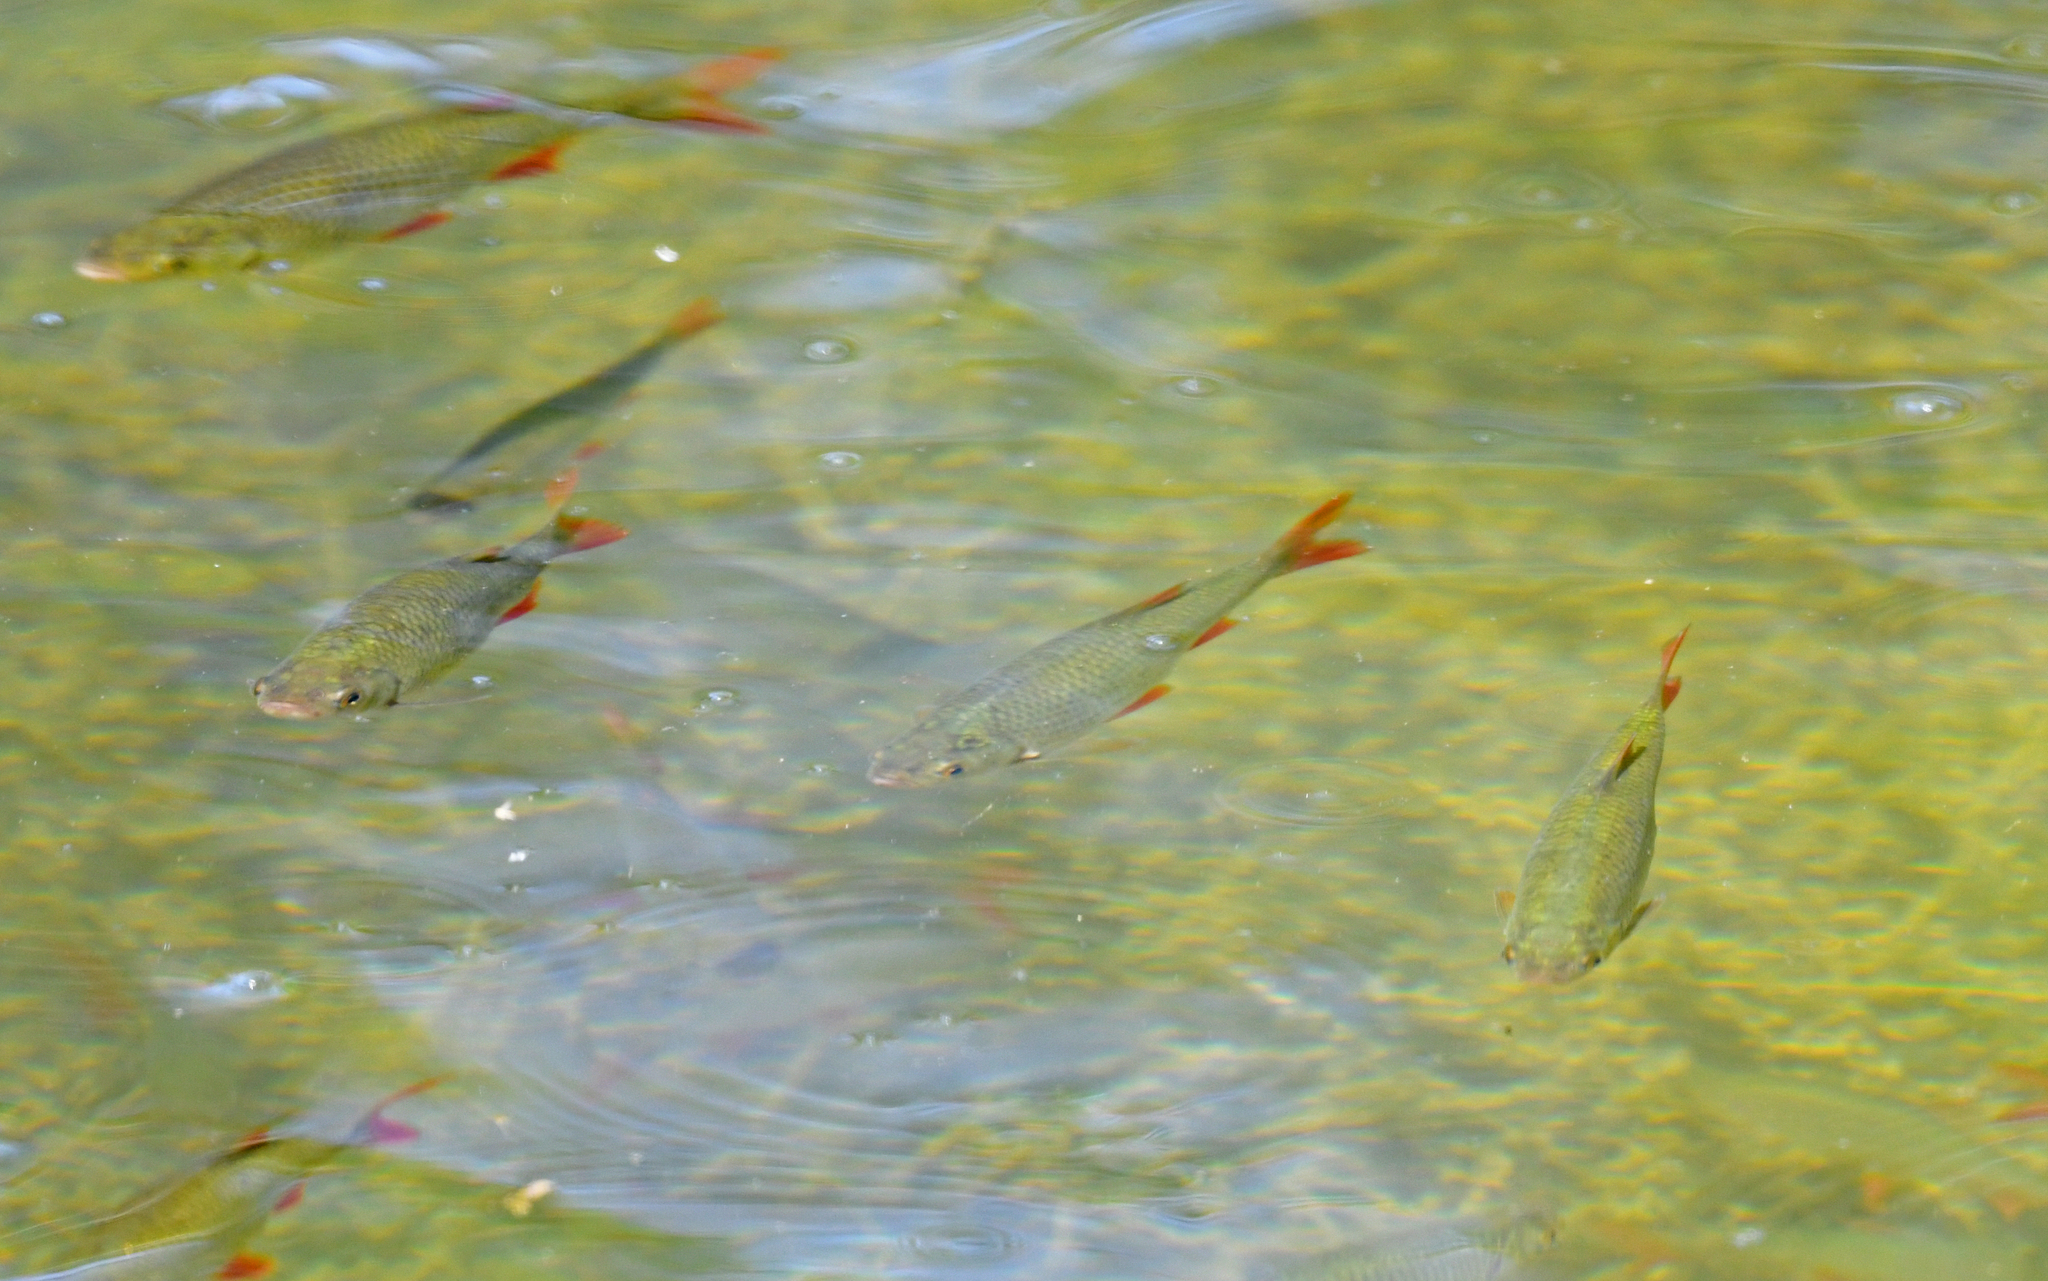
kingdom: Animalia
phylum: Chordata
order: Cypriniformes
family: Cyprinidae
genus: Scardinius
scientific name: Scardinius erythrophthalmus
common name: Rudd
